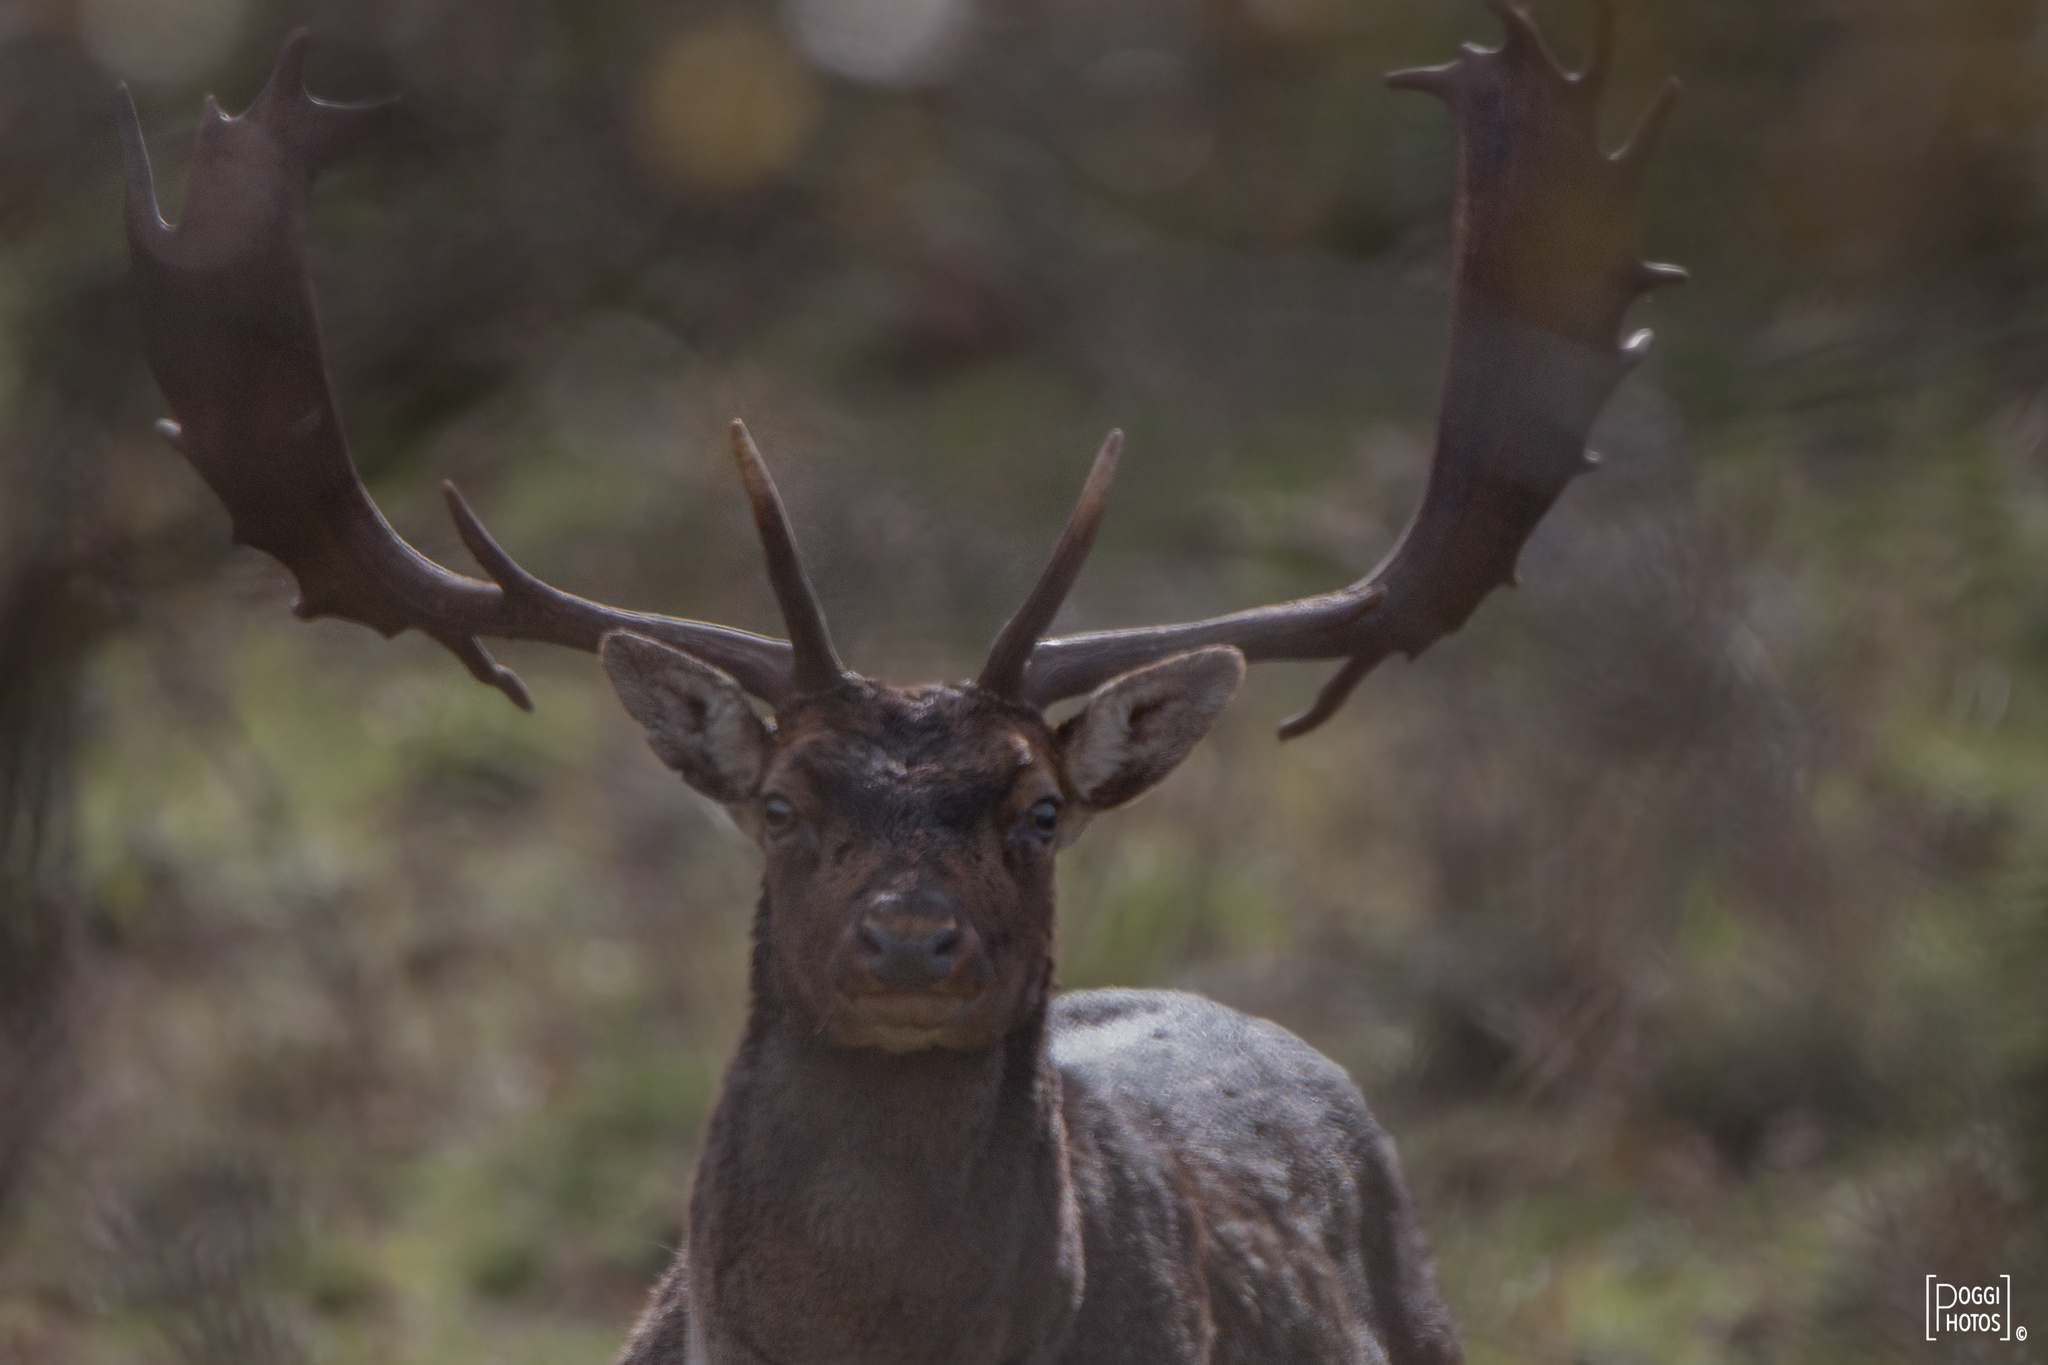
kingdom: Animalia
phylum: Chordata
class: Mammalia
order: Artiodactyla
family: Cervidae
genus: Dama
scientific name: Dama dama
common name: Fallow deer
